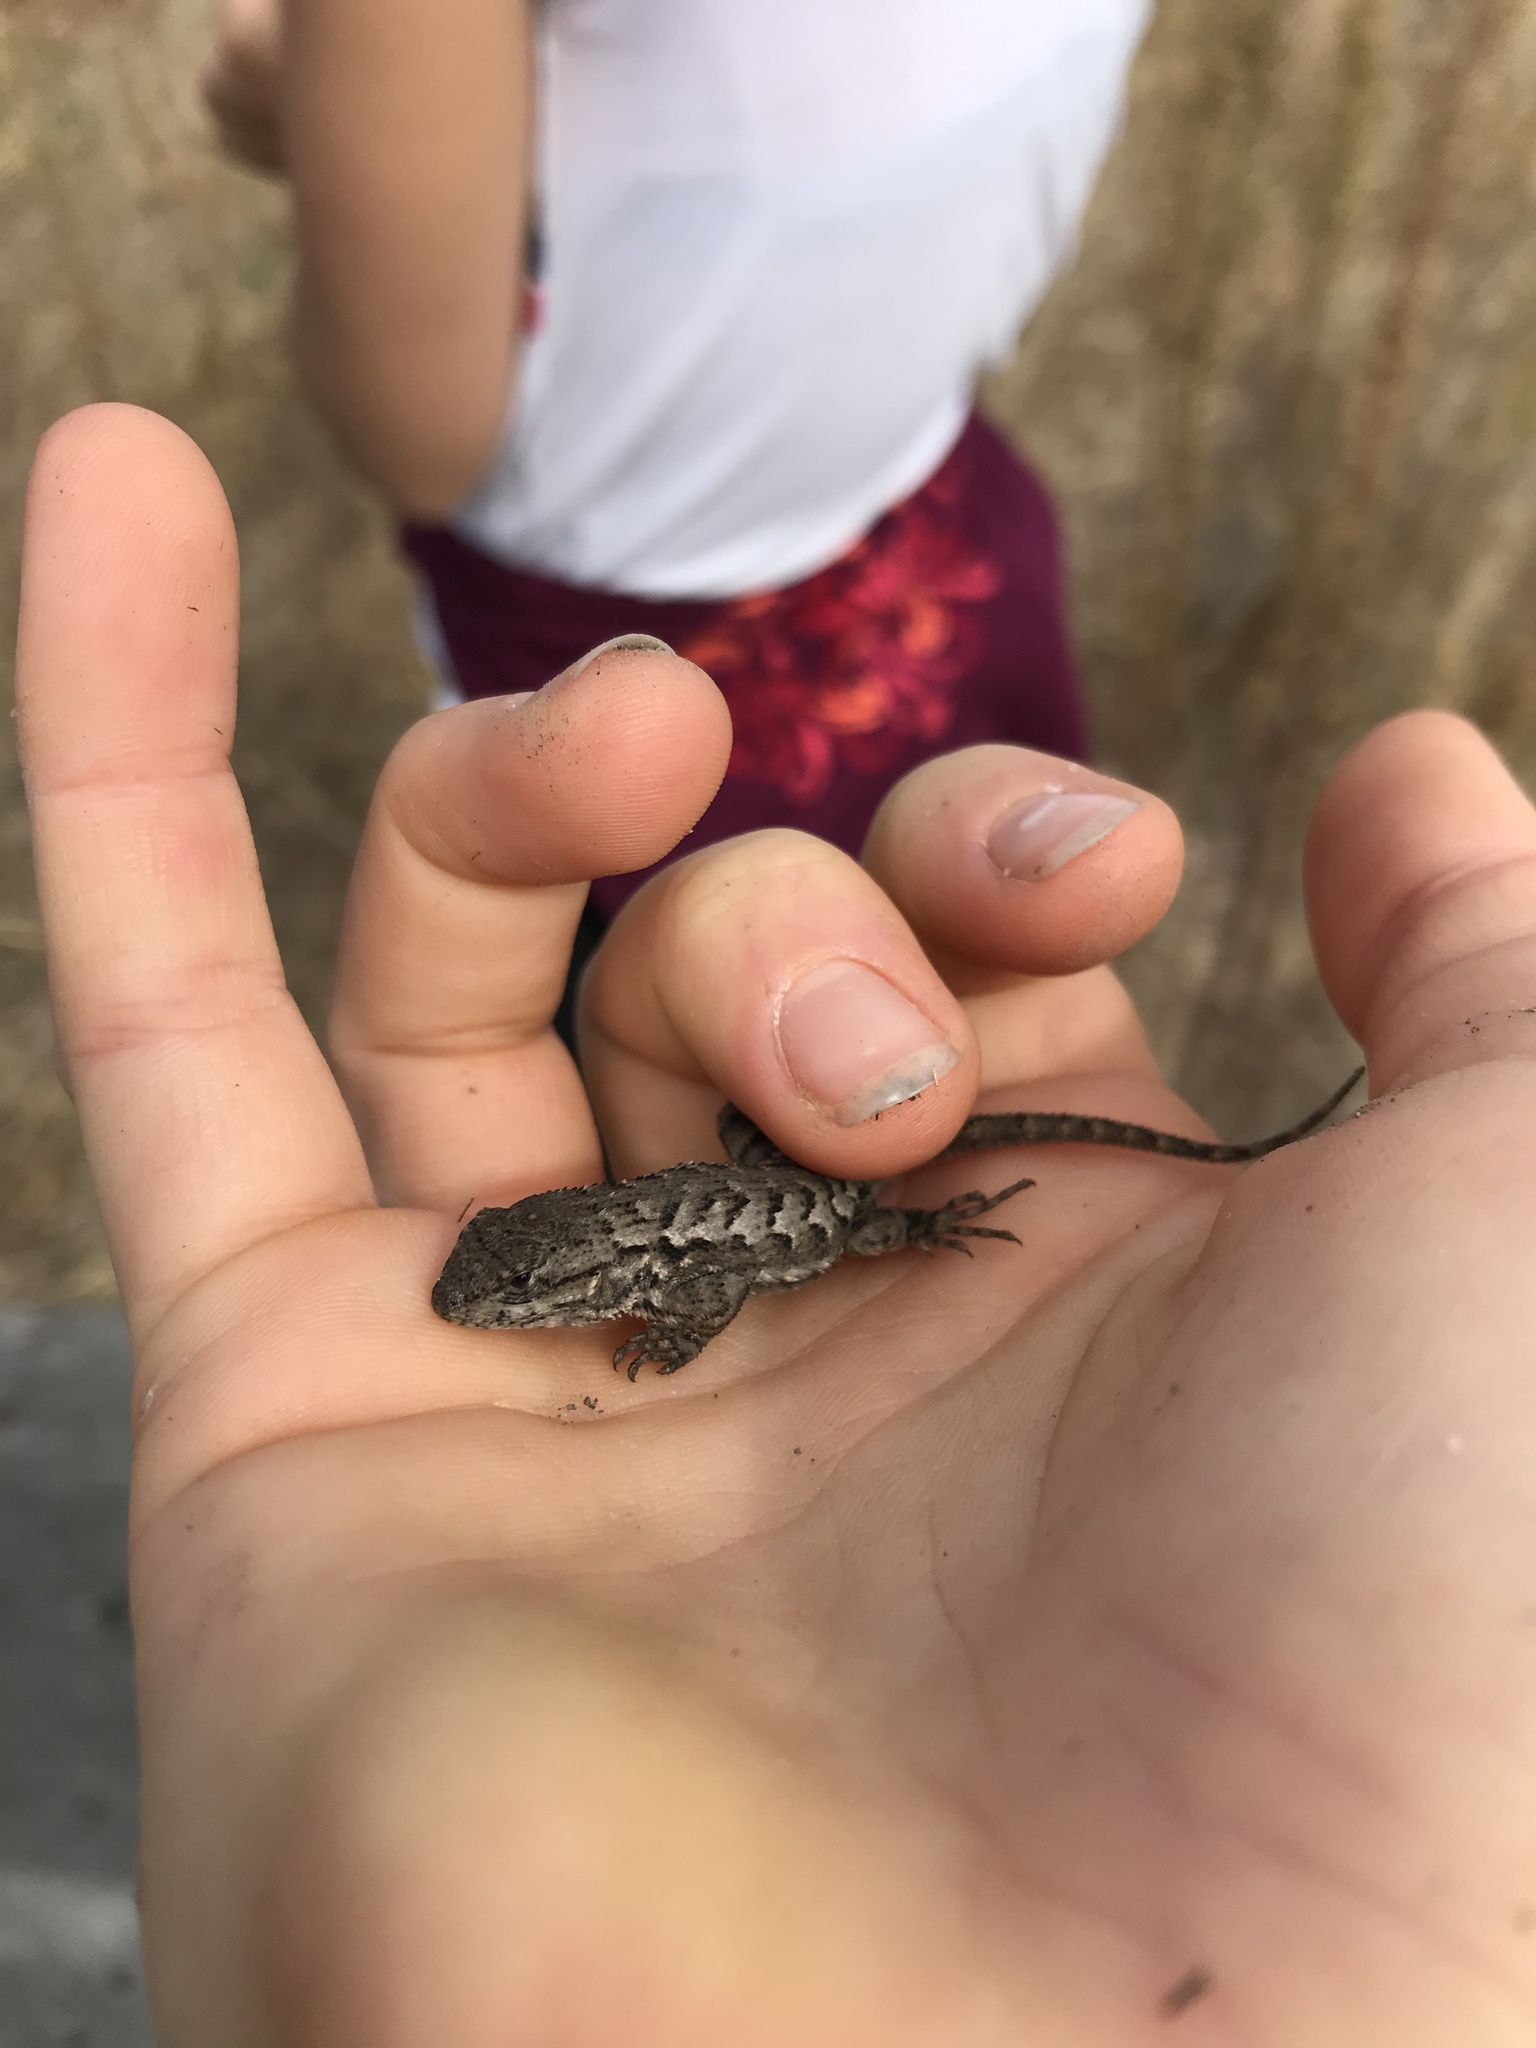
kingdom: Animalia
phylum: Chordata
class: Squamata
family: Phrynosomatidae
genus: Sceloporus
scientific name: Sceloporus occidentalis
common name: Western fence lizard
